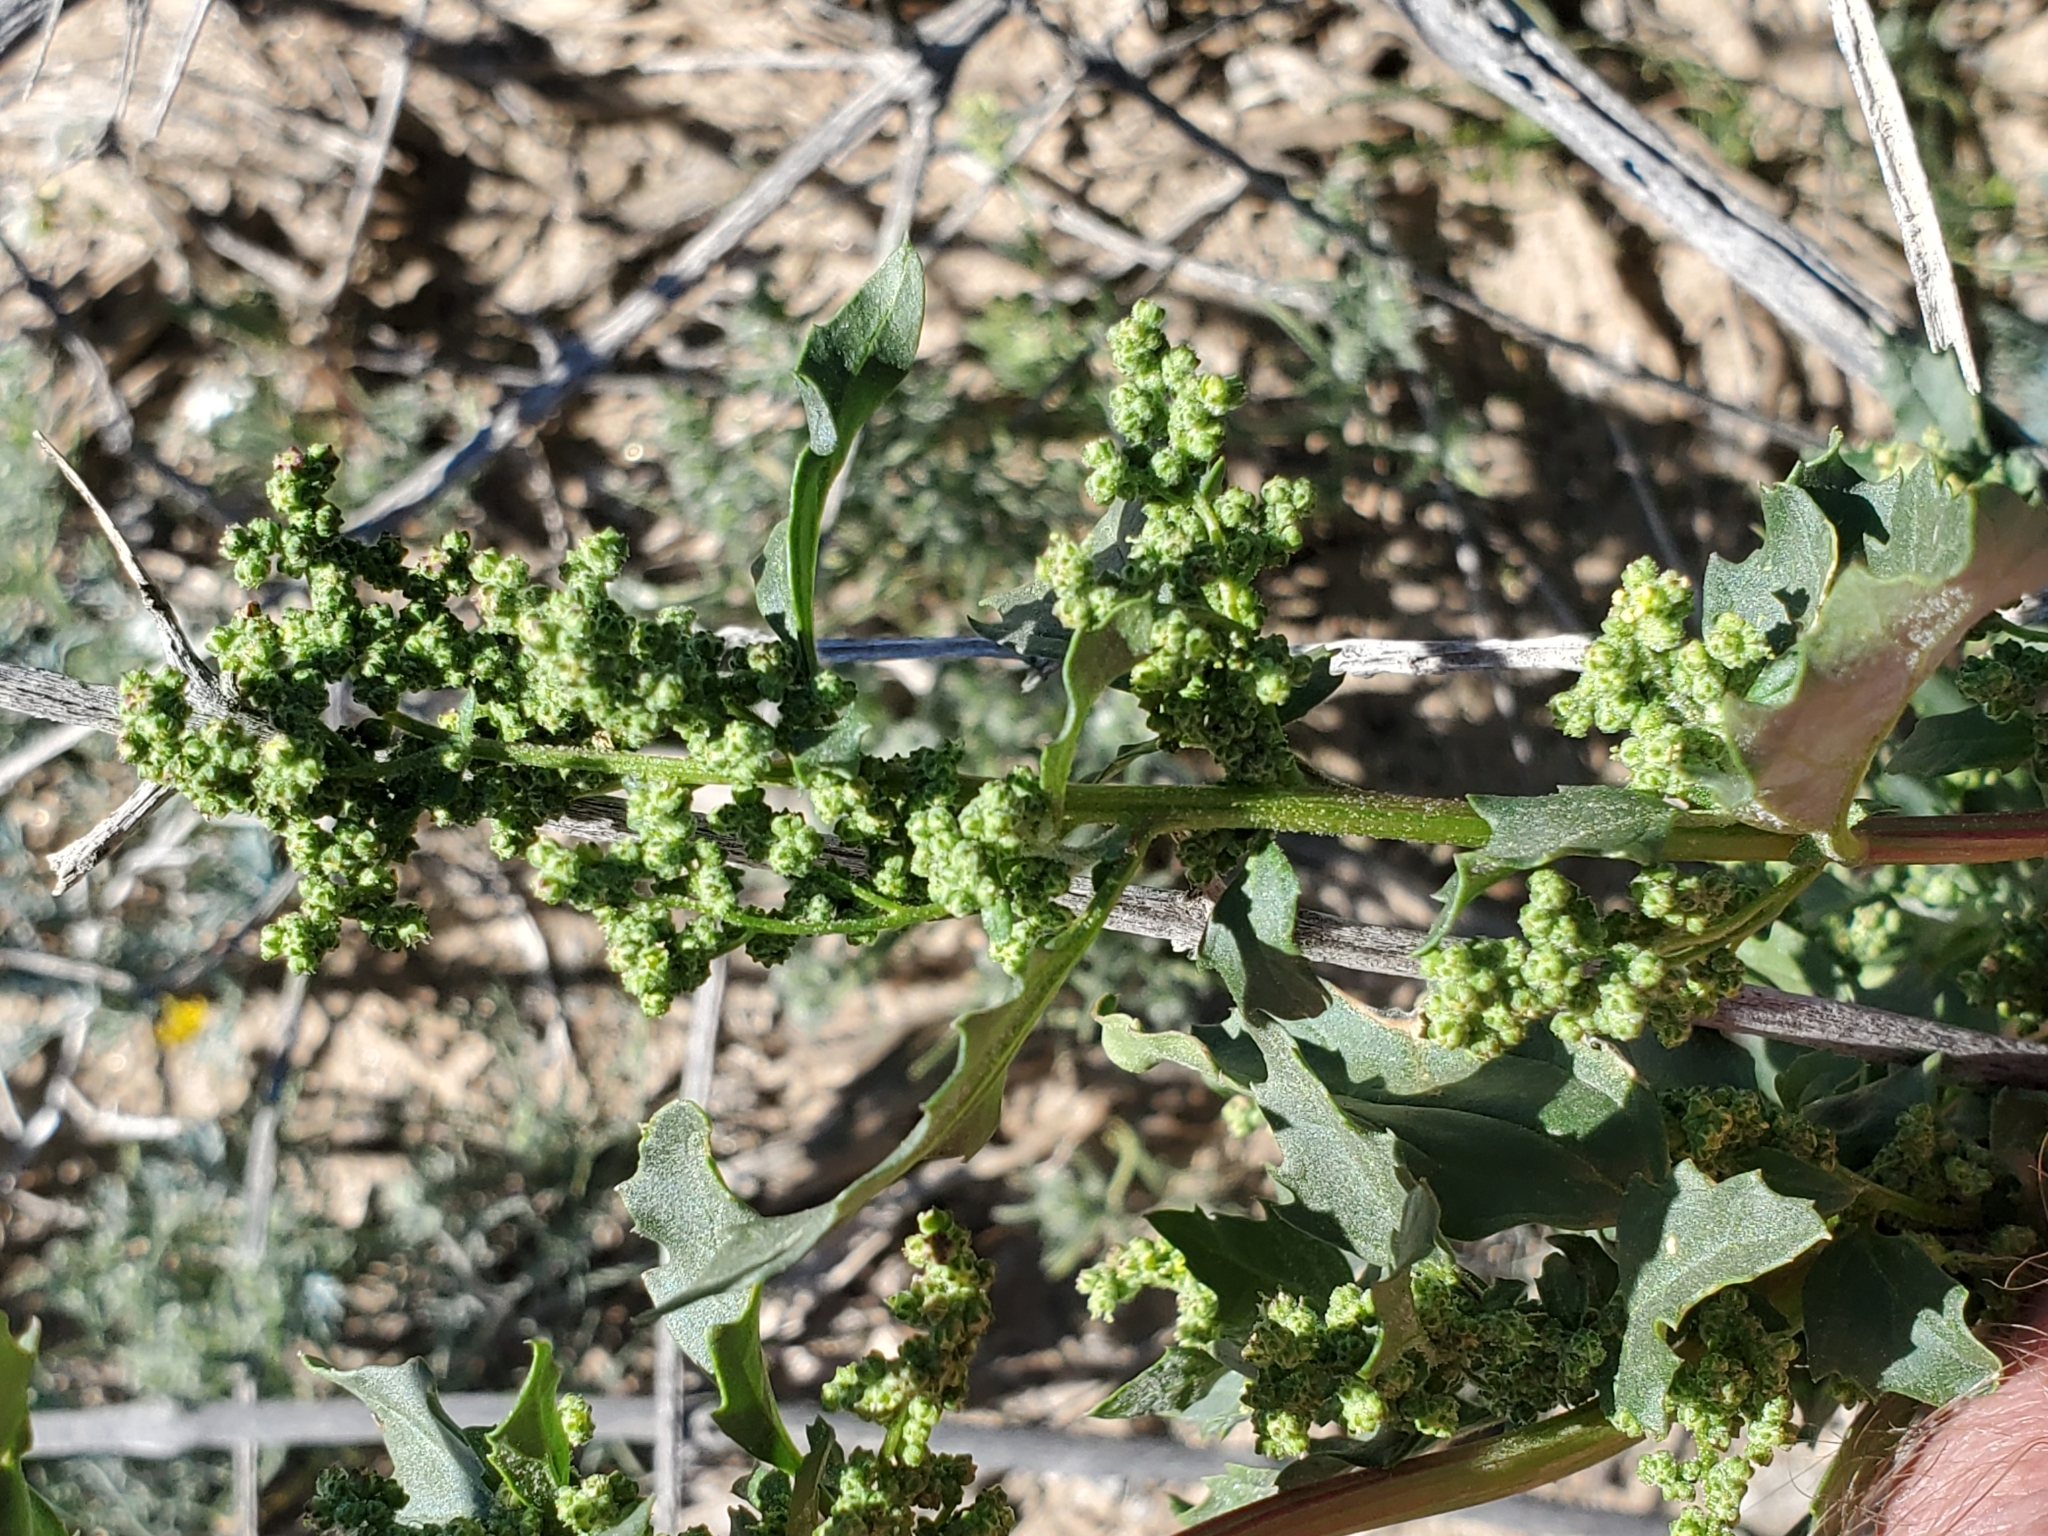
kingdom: Plantae
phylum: Tracheophyta
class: Magnoliopsida
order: Caryophyllales
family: Amaranthaceae
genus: Chenopodiastrum
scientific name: Chenopodiastrum murale
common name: Sowbane
